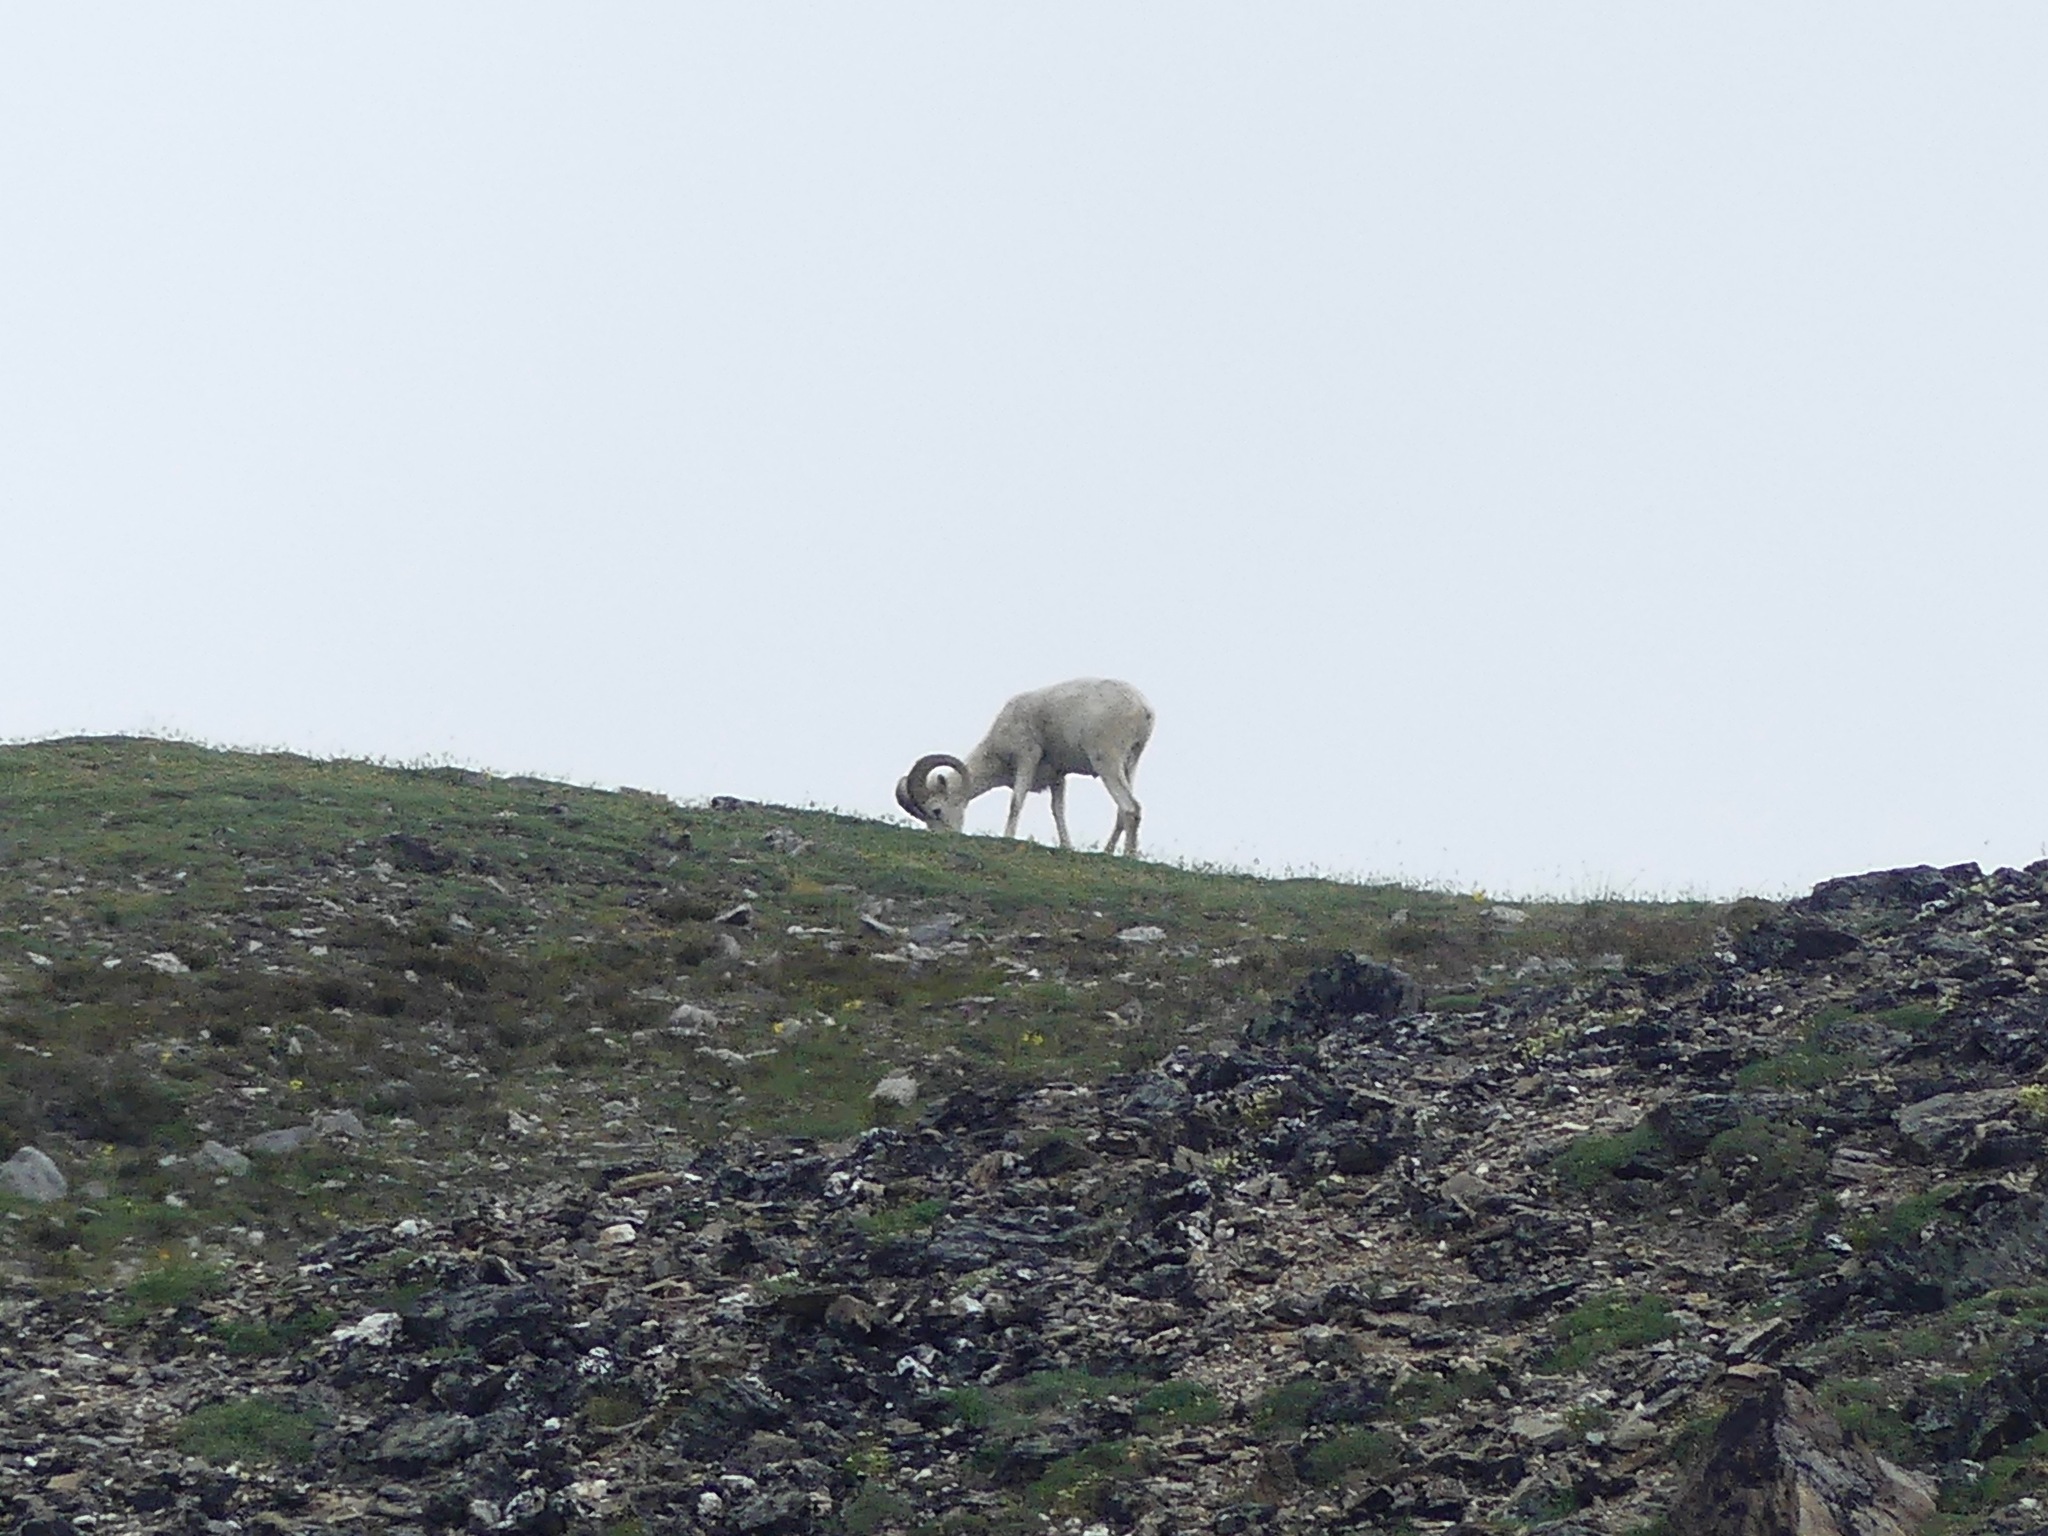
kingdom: Animalia
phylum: Chordata
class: Mammalia
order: Artiodactyla
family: Bovidae
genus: Ovis
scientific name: Ovis dalli
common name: Dall's sheep
